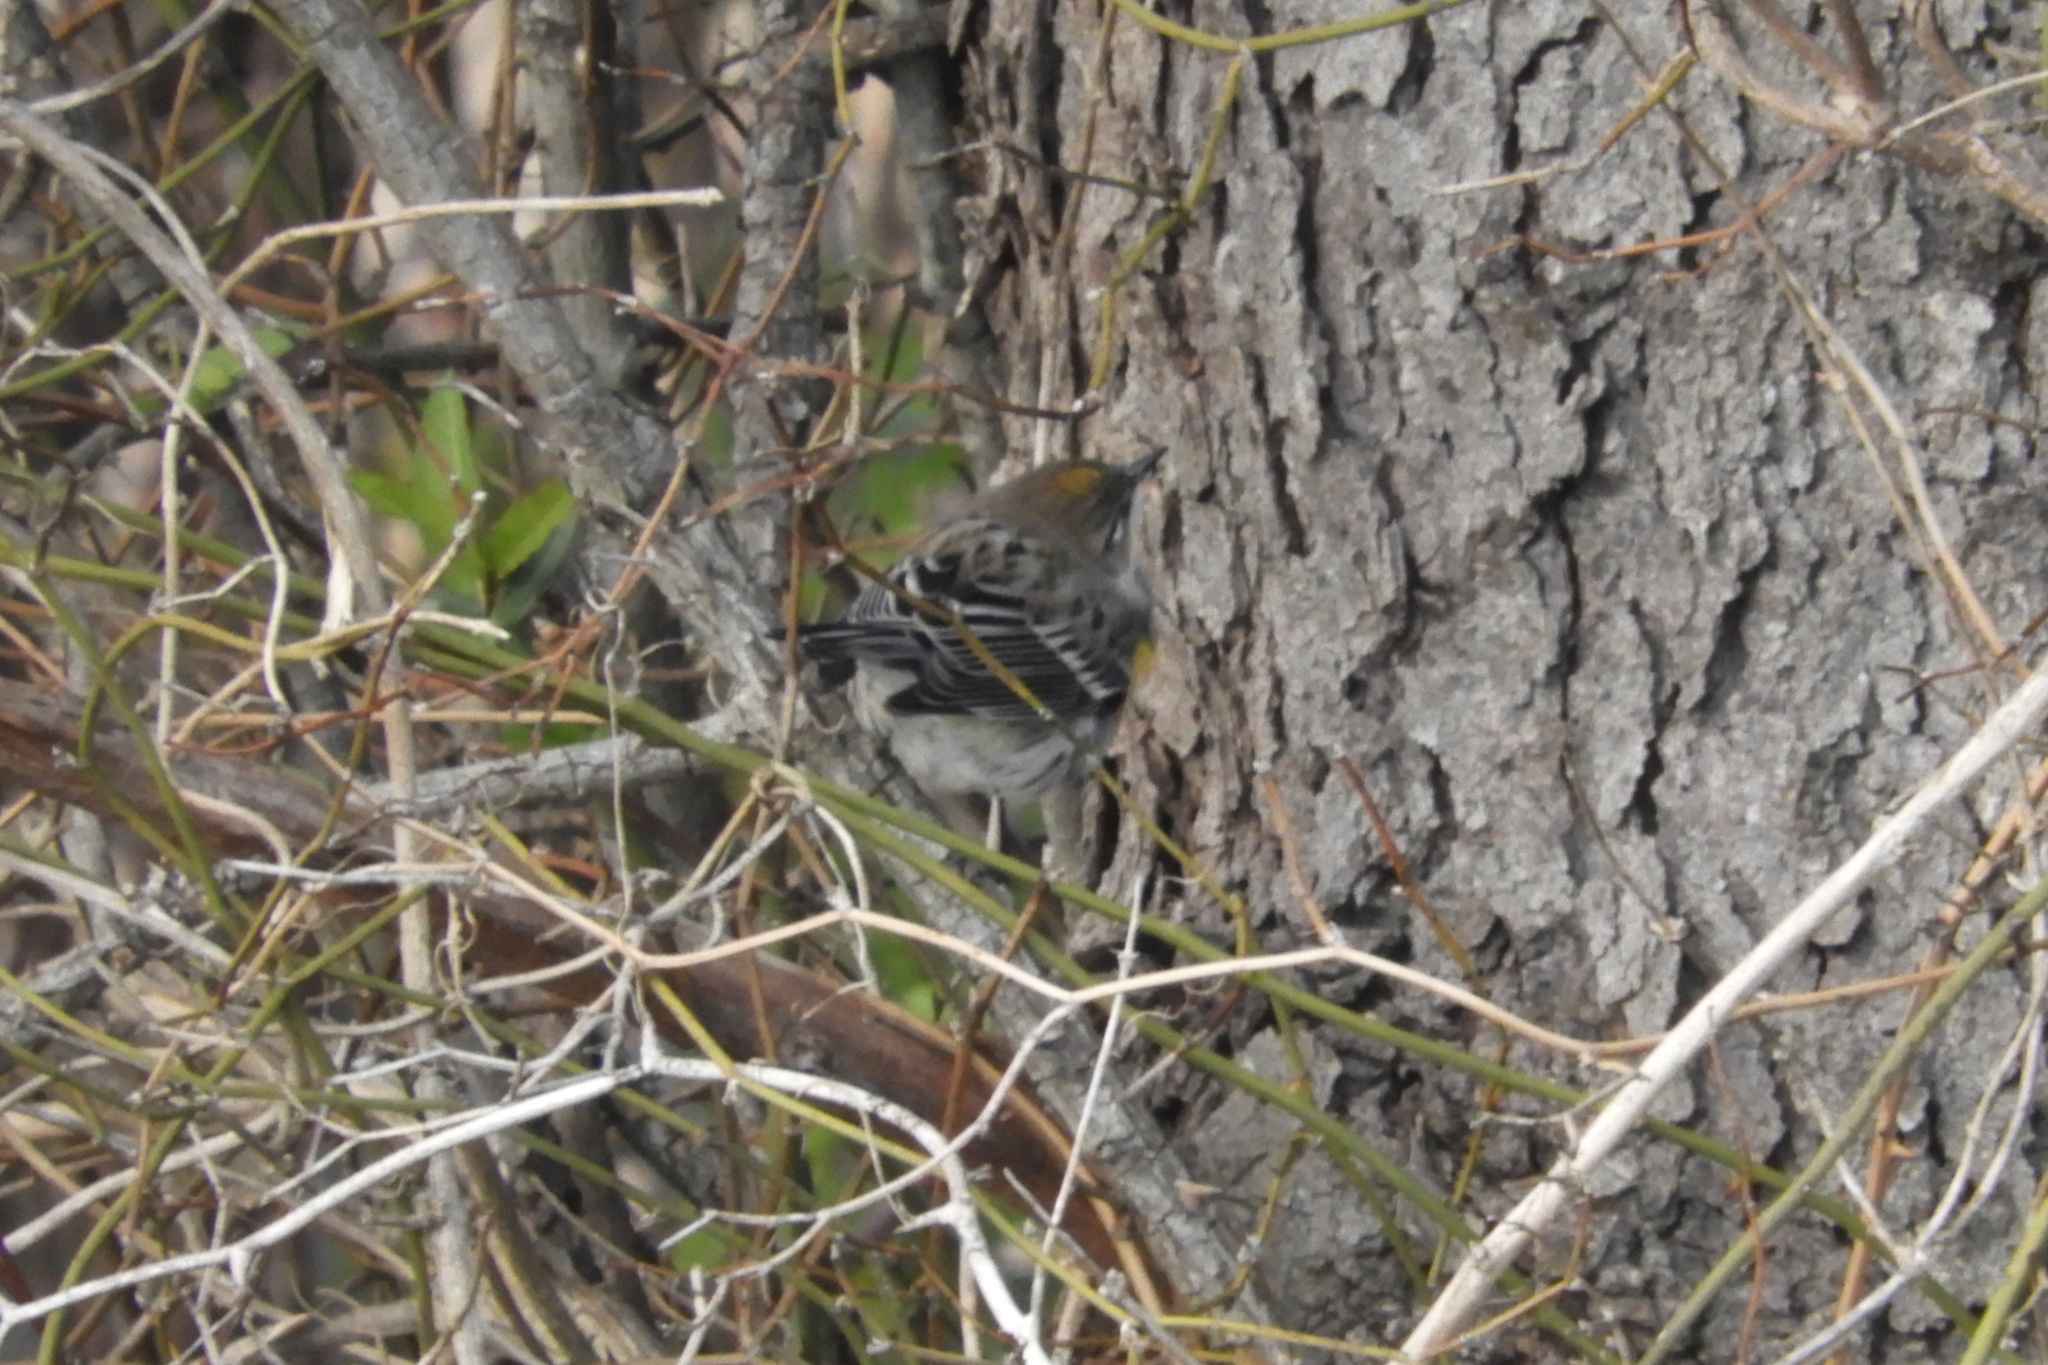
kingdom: Animalia
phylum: Chordata
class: Aves
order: Passeriformes
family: Parulidae
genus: Setophaga
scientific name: Setophaga coronata
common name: Myrtle warbler
